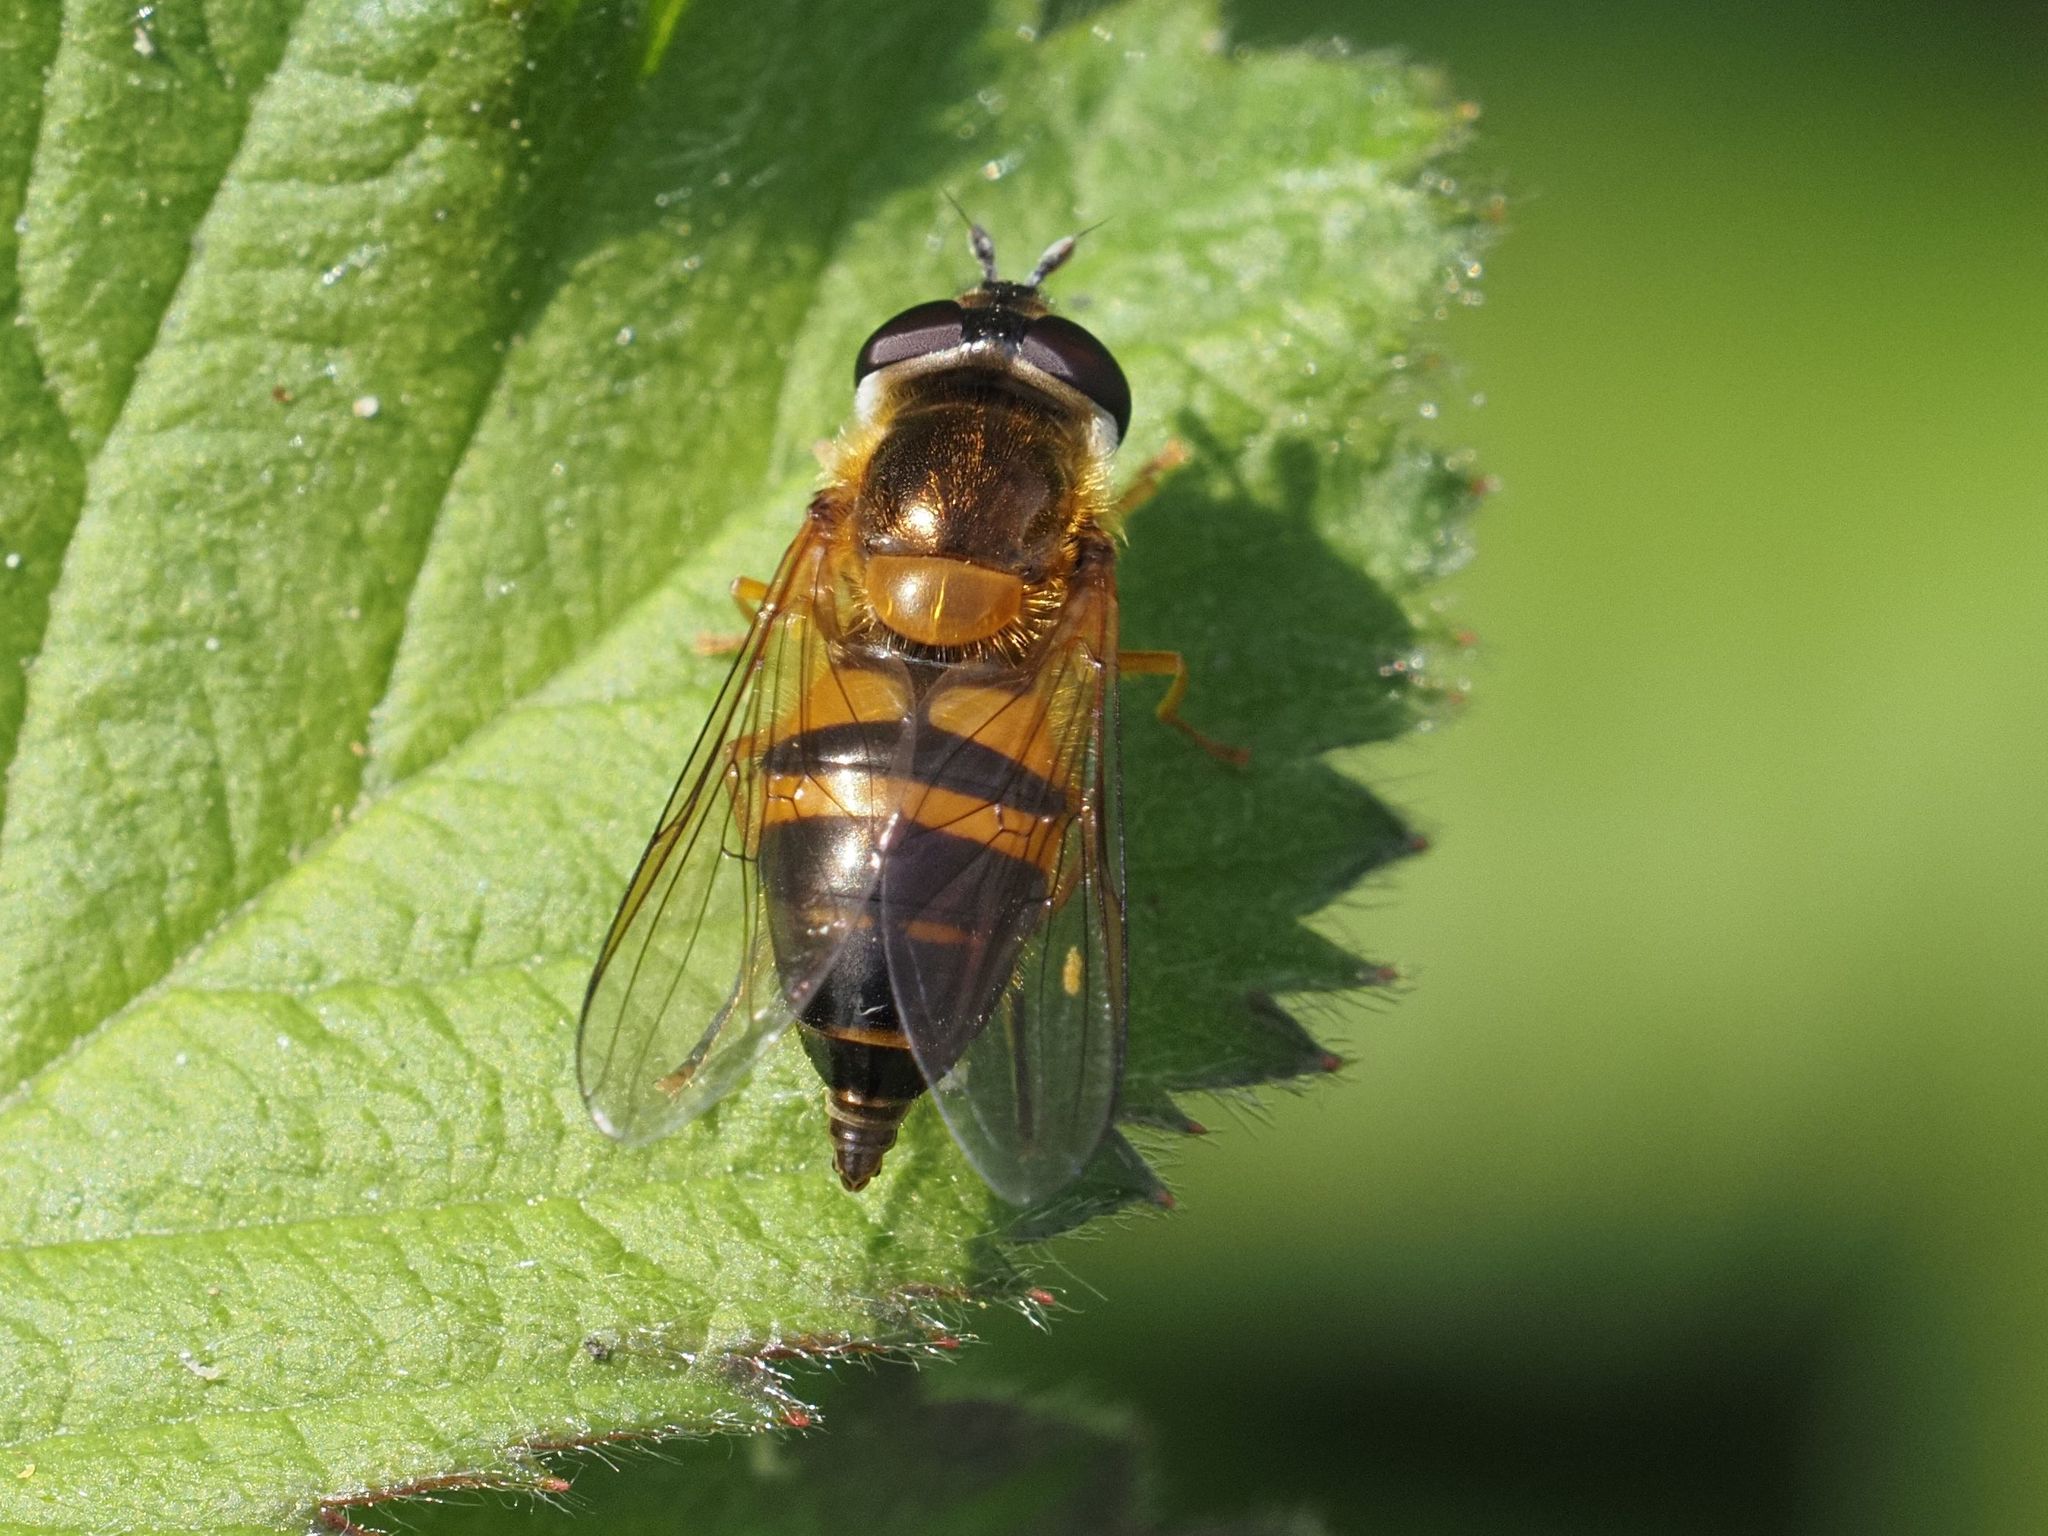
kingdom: Animalia
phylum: Arthropoda
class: Insecta
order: Diptera
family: Syrphidae
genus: Epistrophe
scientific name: Epistrophe eligans
